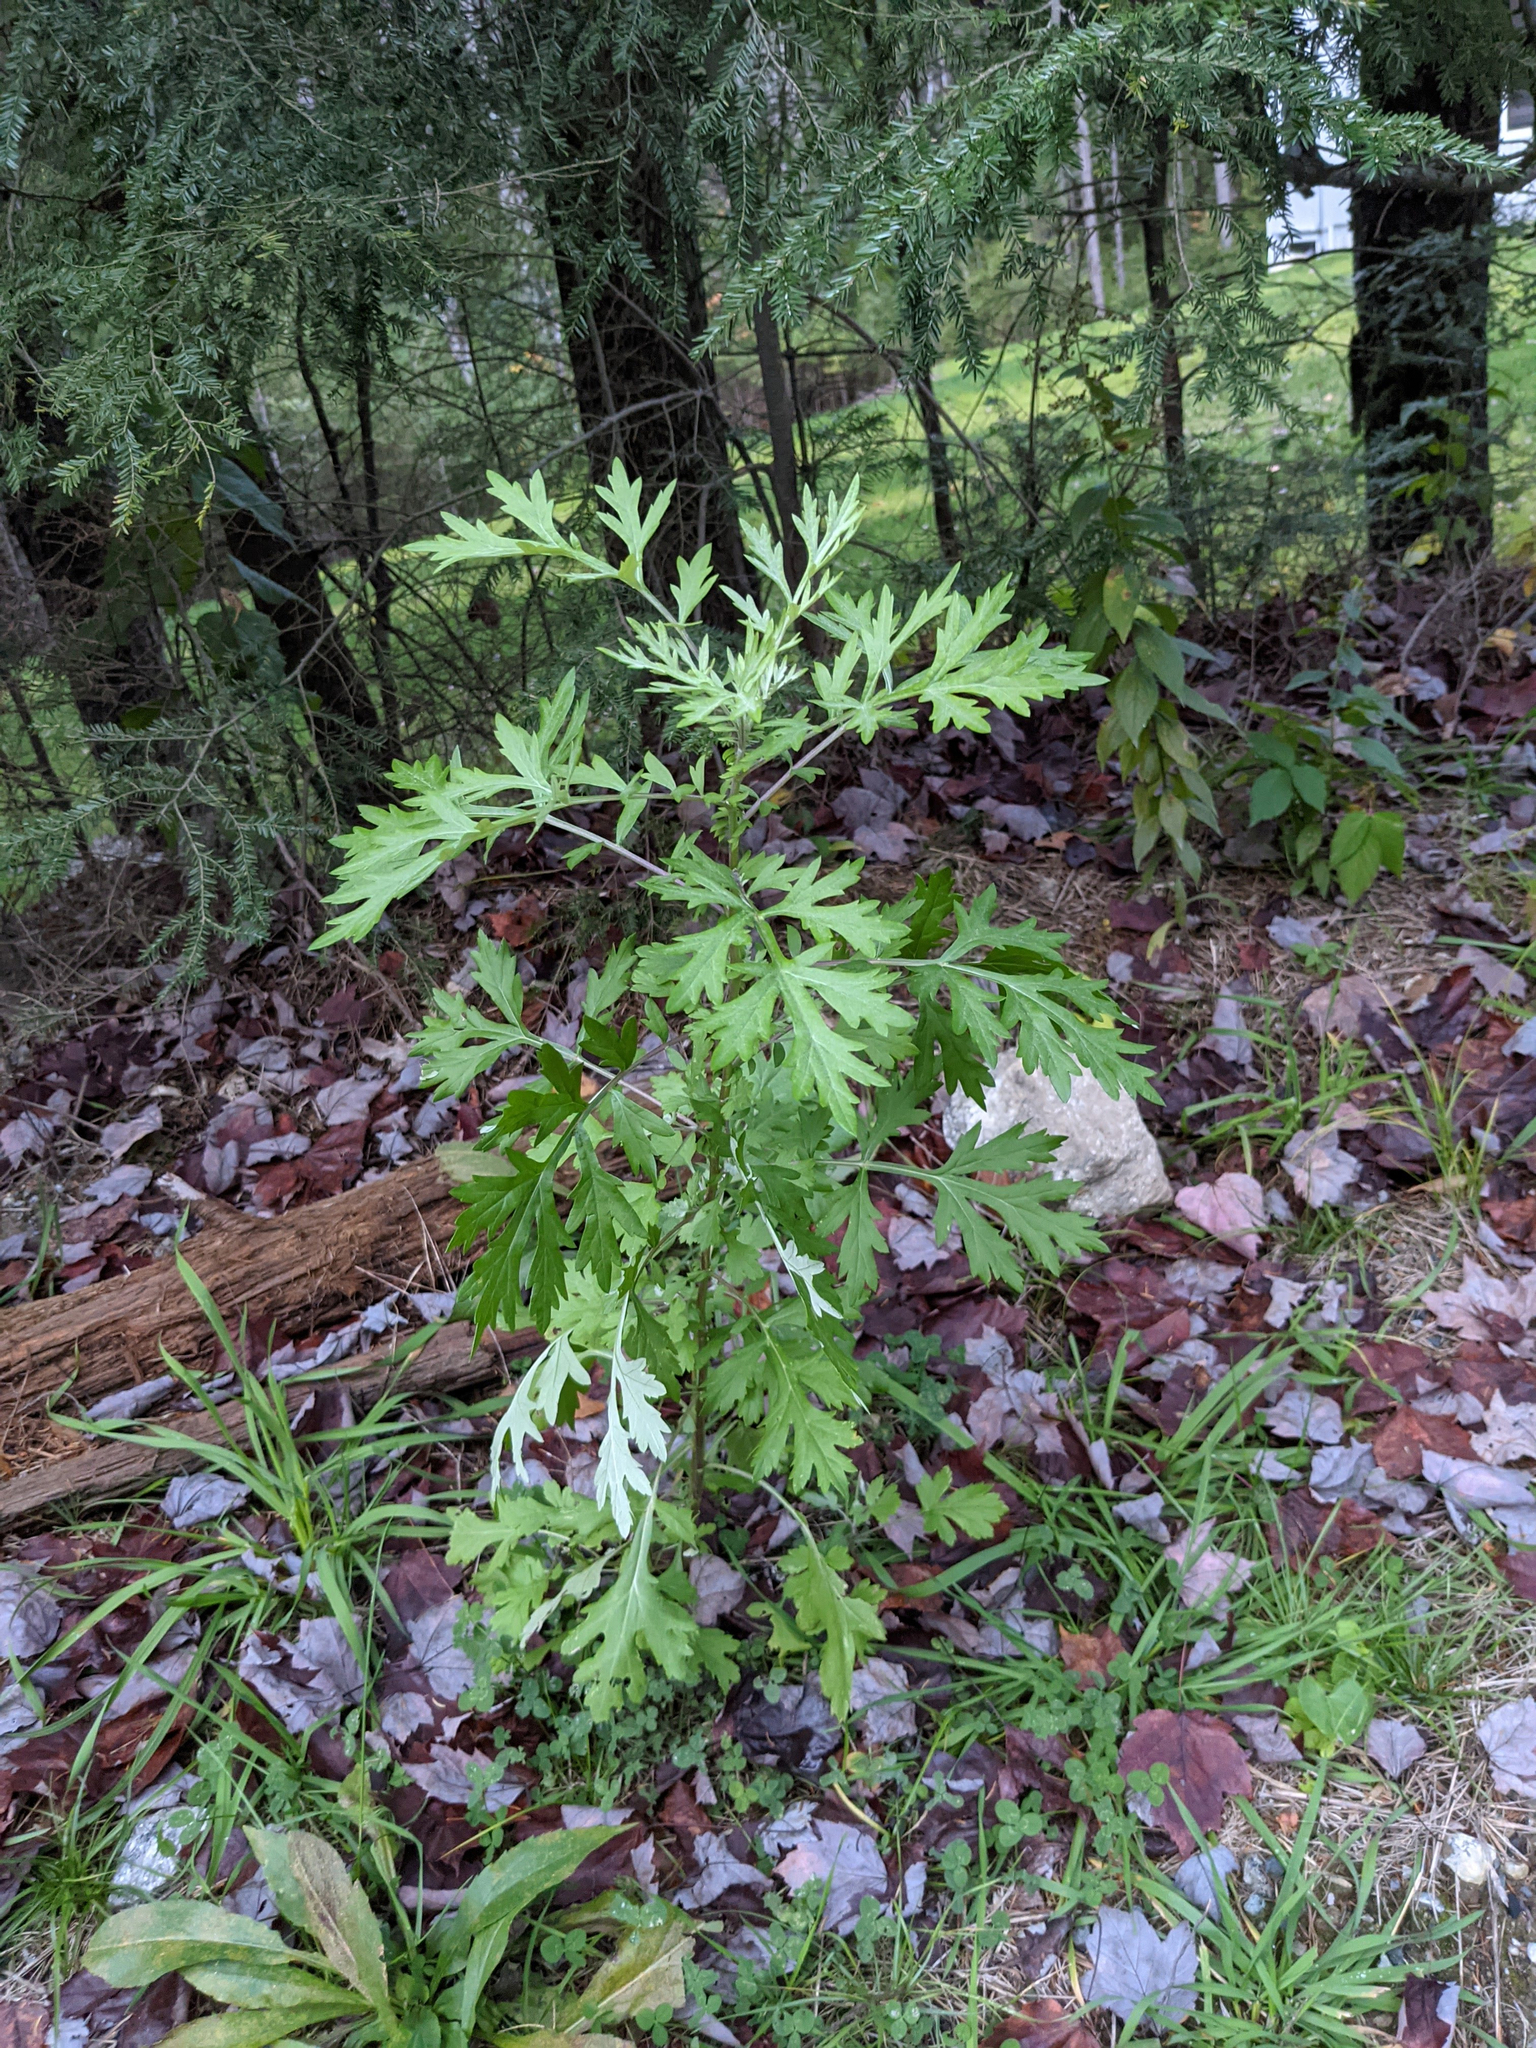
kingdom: Plantae
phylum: Tracheophyta
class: Magnoliopsida
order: Asterales
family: Asteraceae
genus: Artemisia
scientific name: Artemisia vulgaris
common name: Mugwort
